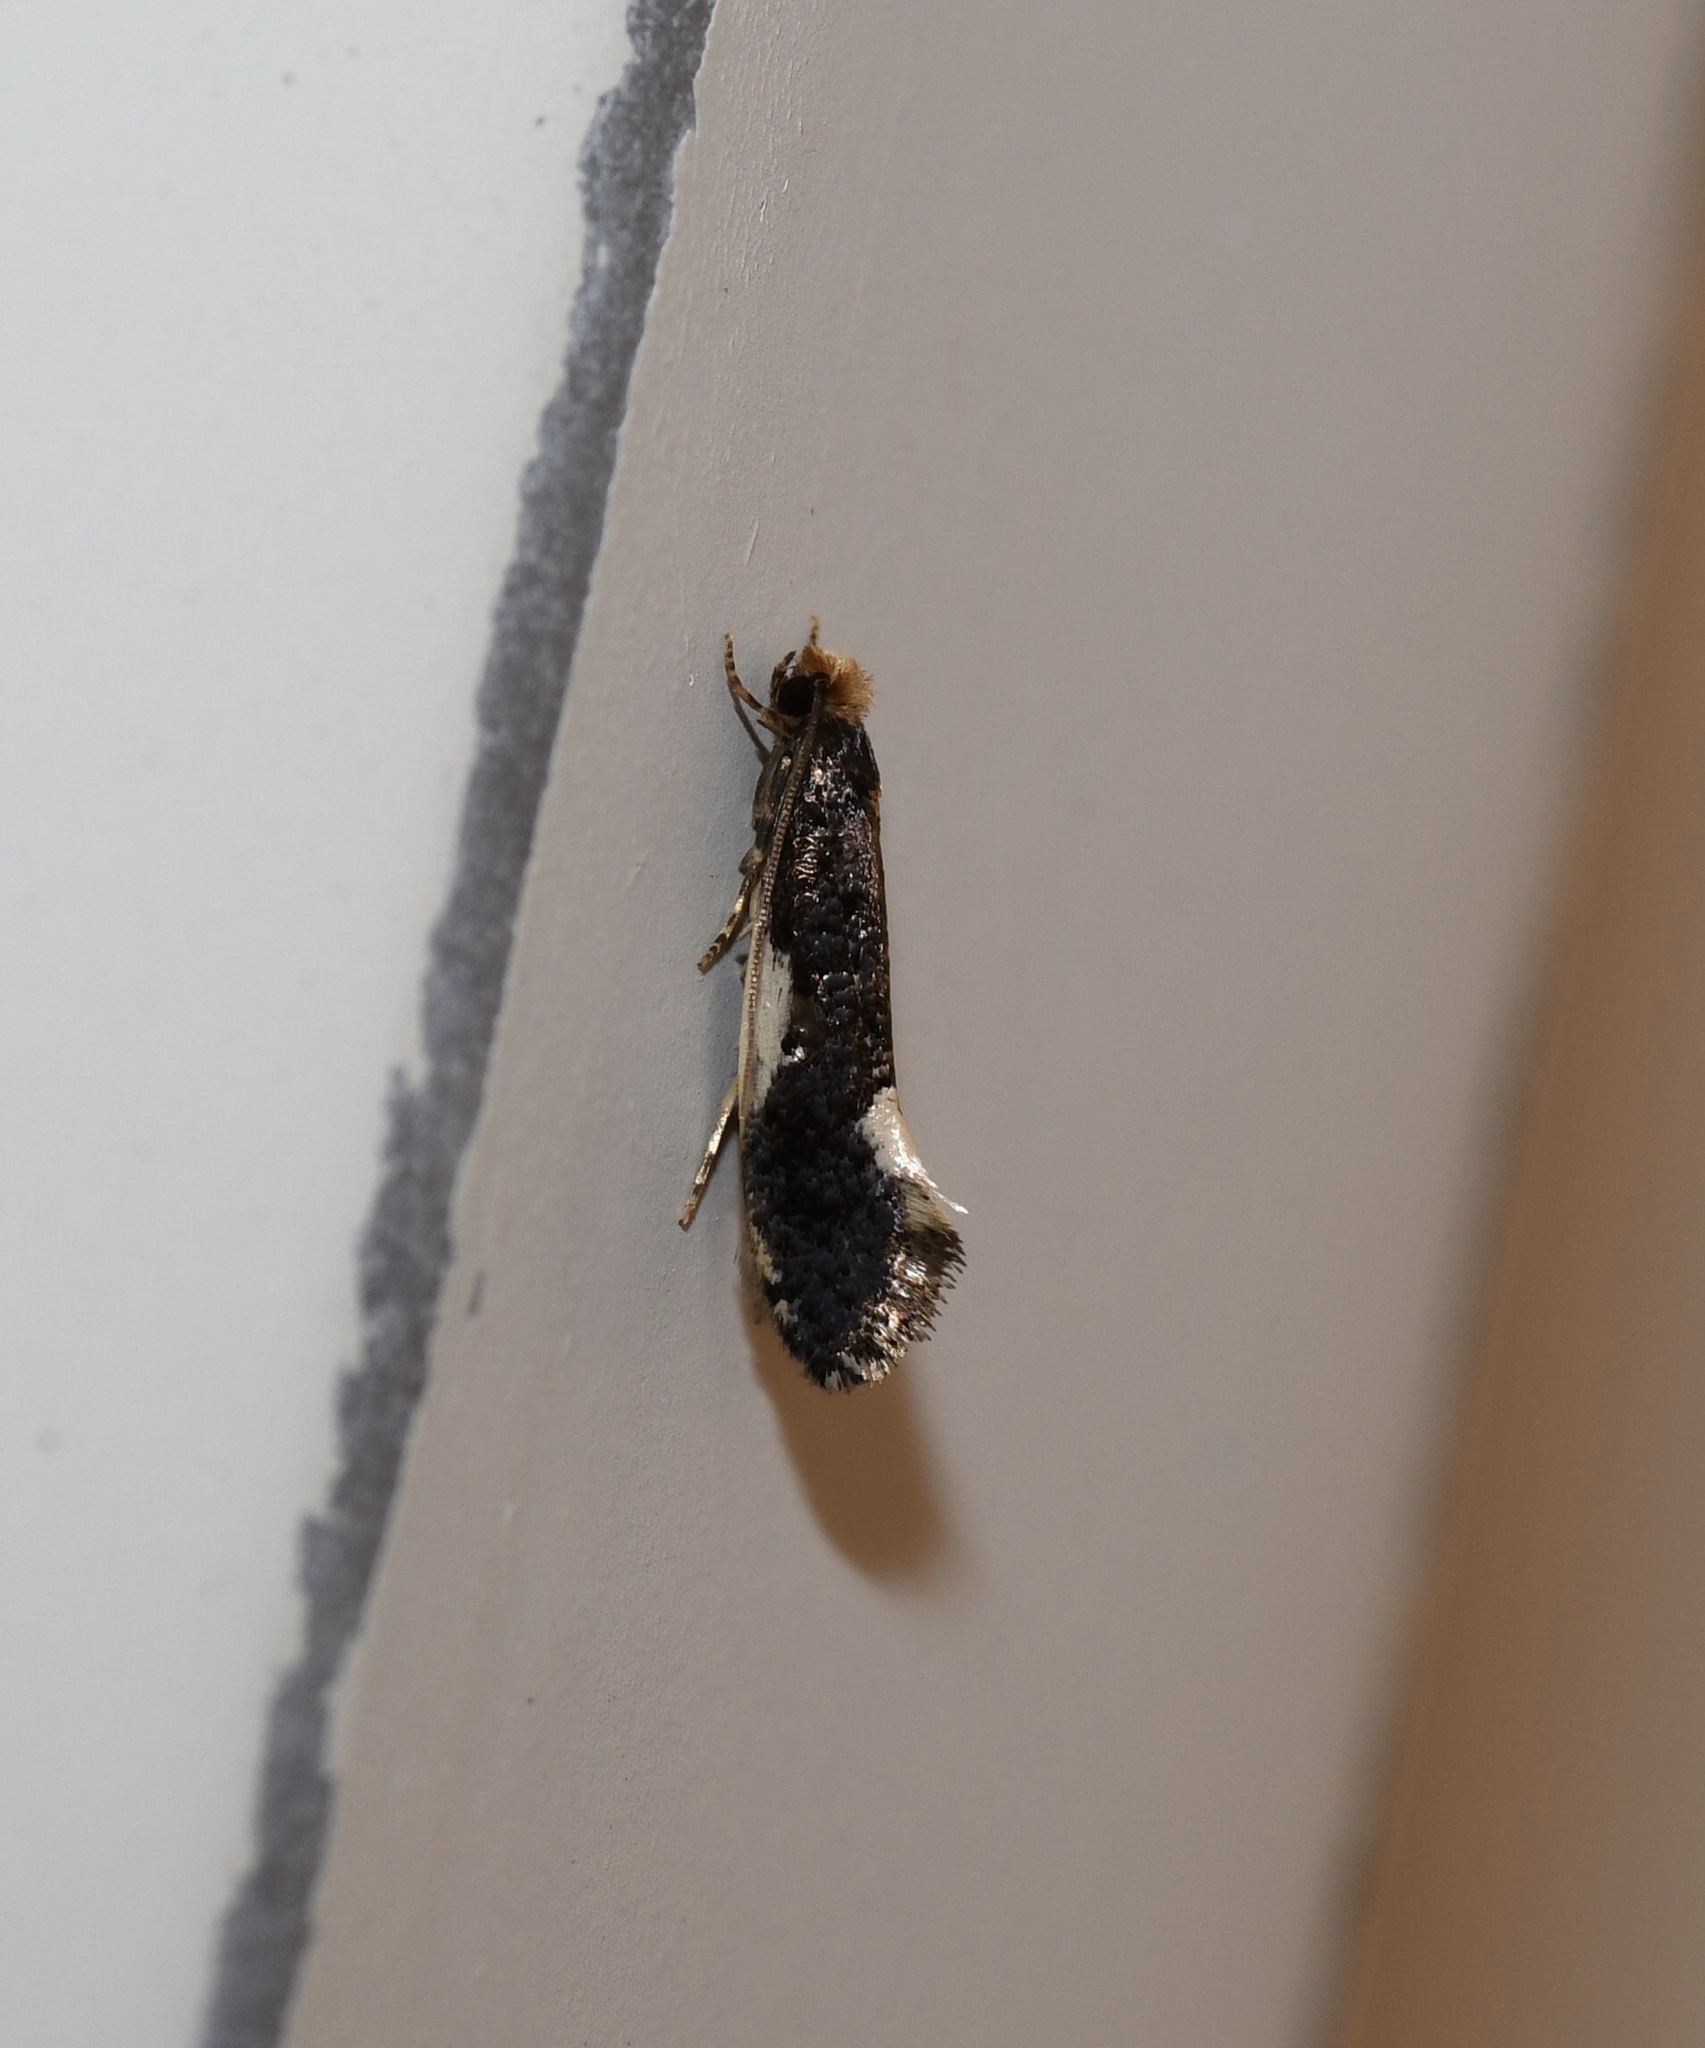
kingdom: Animalia
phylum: Arthropoda
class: Insecta
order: Lepidoptera
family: Tineidae
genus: Monopis
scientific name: Monopis spilotella
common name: Orange-headed monopis
